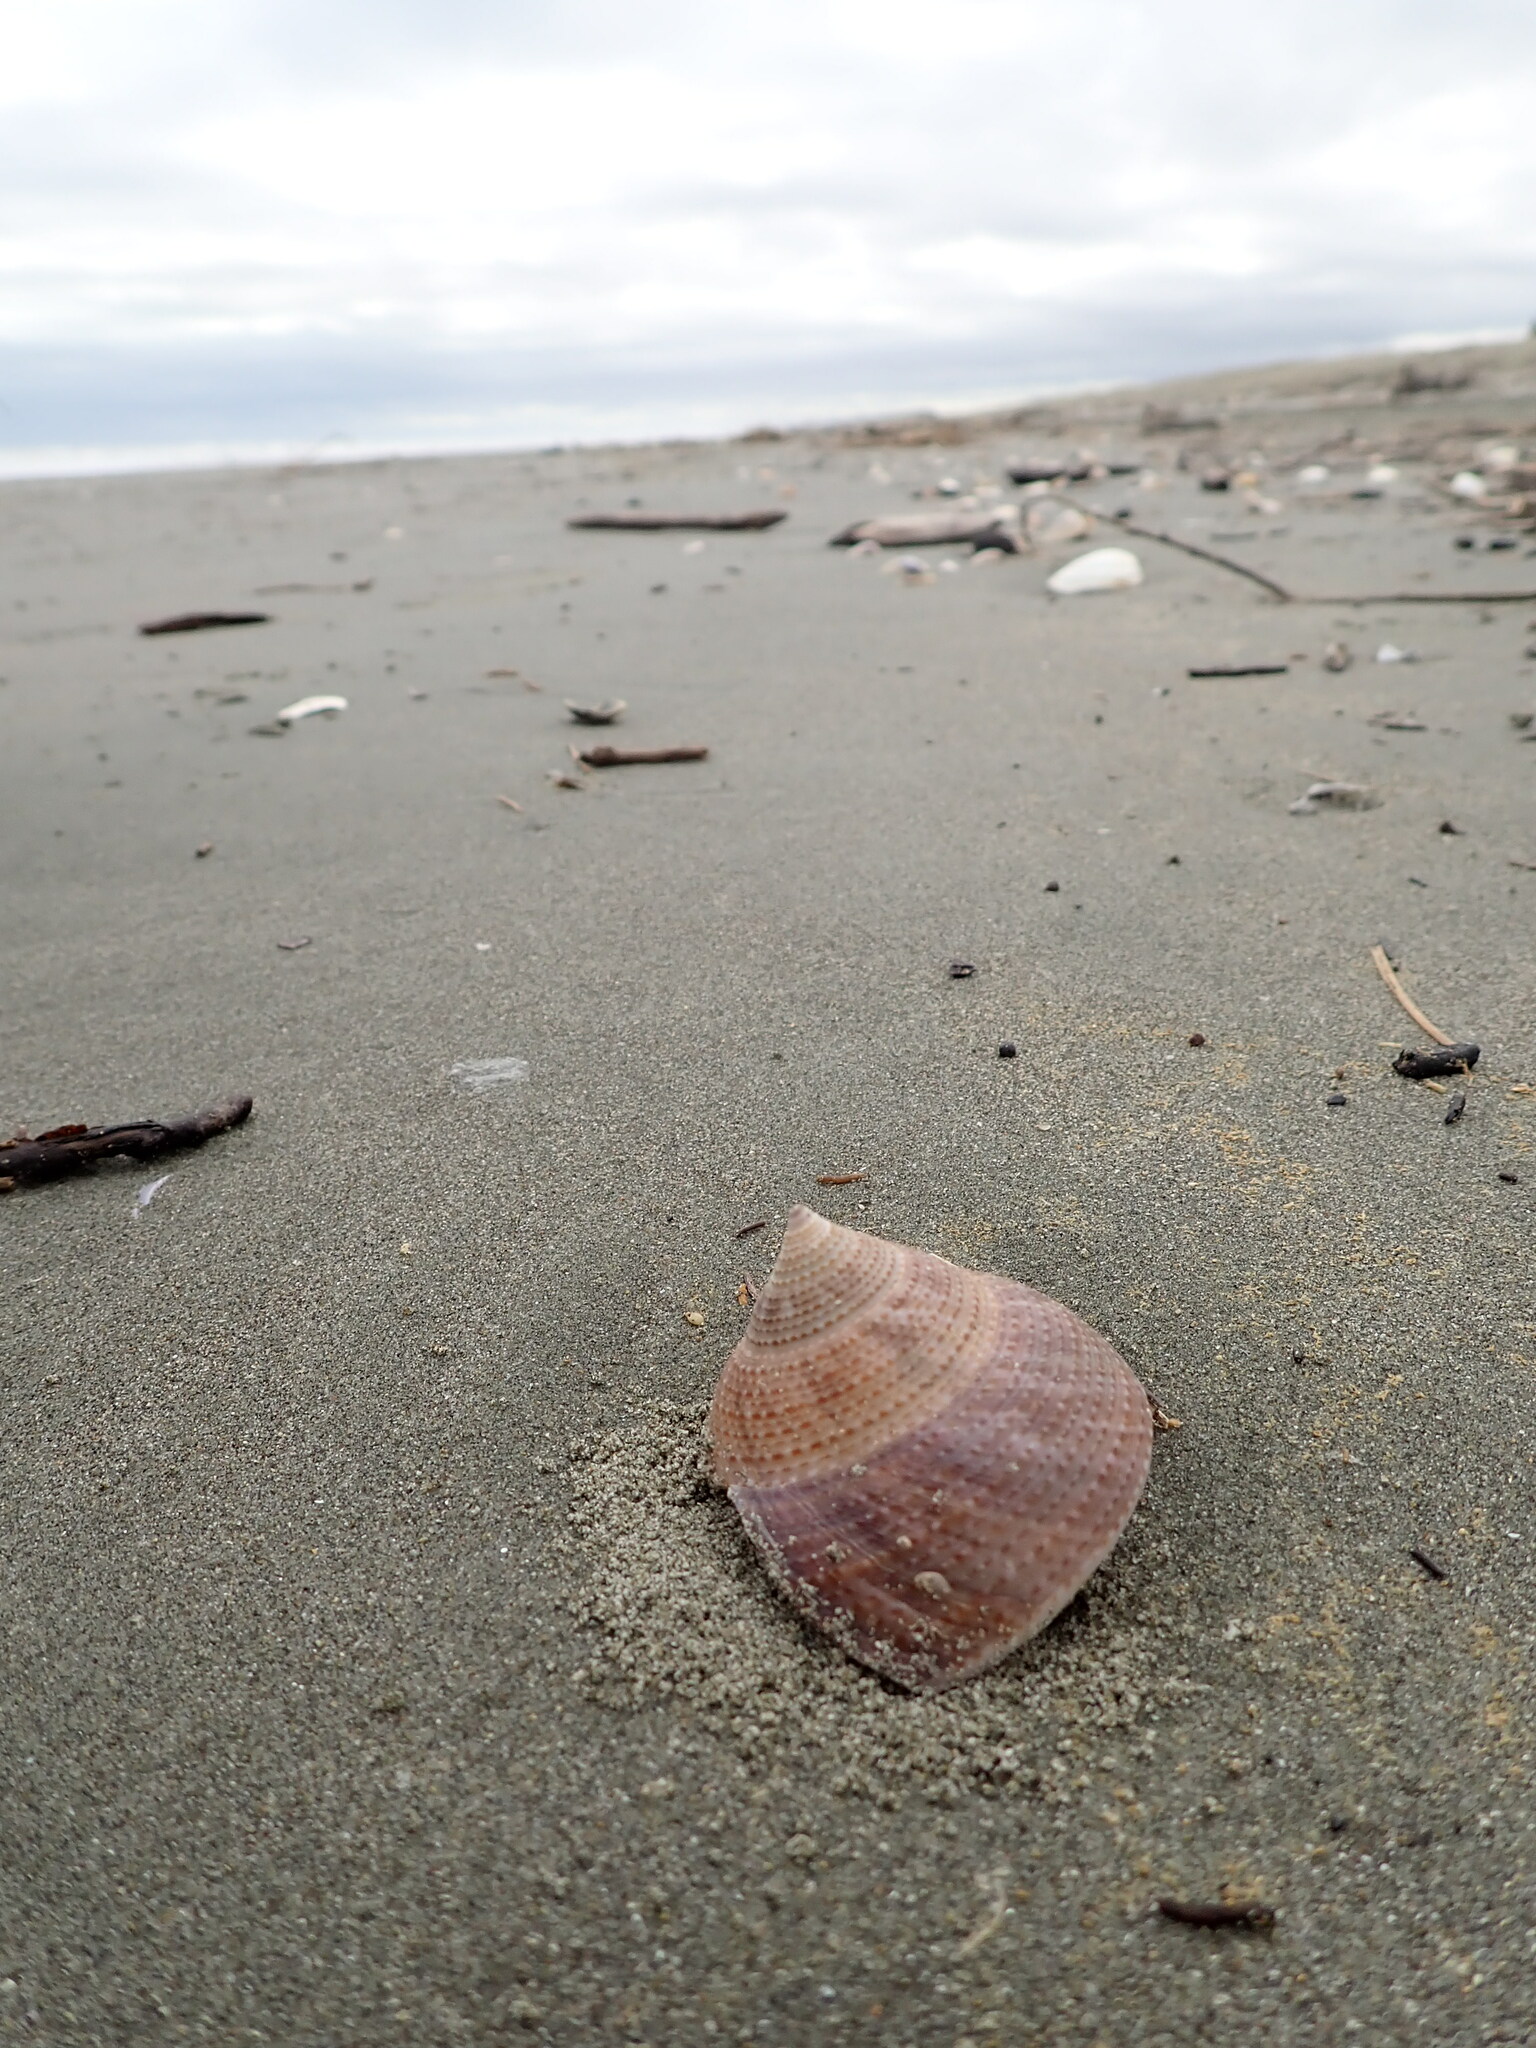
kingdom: Animalia
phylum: Mollusca
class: Gastropoda
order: Trochida
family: Calliostomatidae
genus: Maurea
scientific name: Maurea selecta
